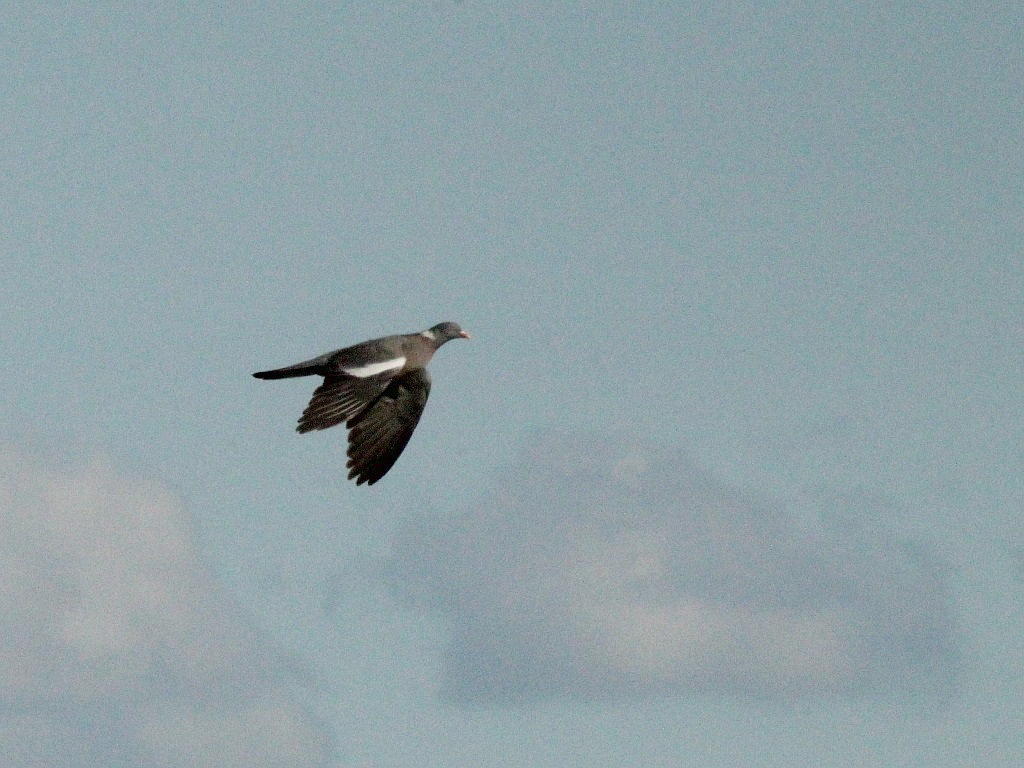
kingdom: Animalia
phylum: Chordata
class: Aves
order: Columbiformes
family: Columbidae
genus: Columba
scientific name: Columba palumbus
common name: Common wood pigeon
